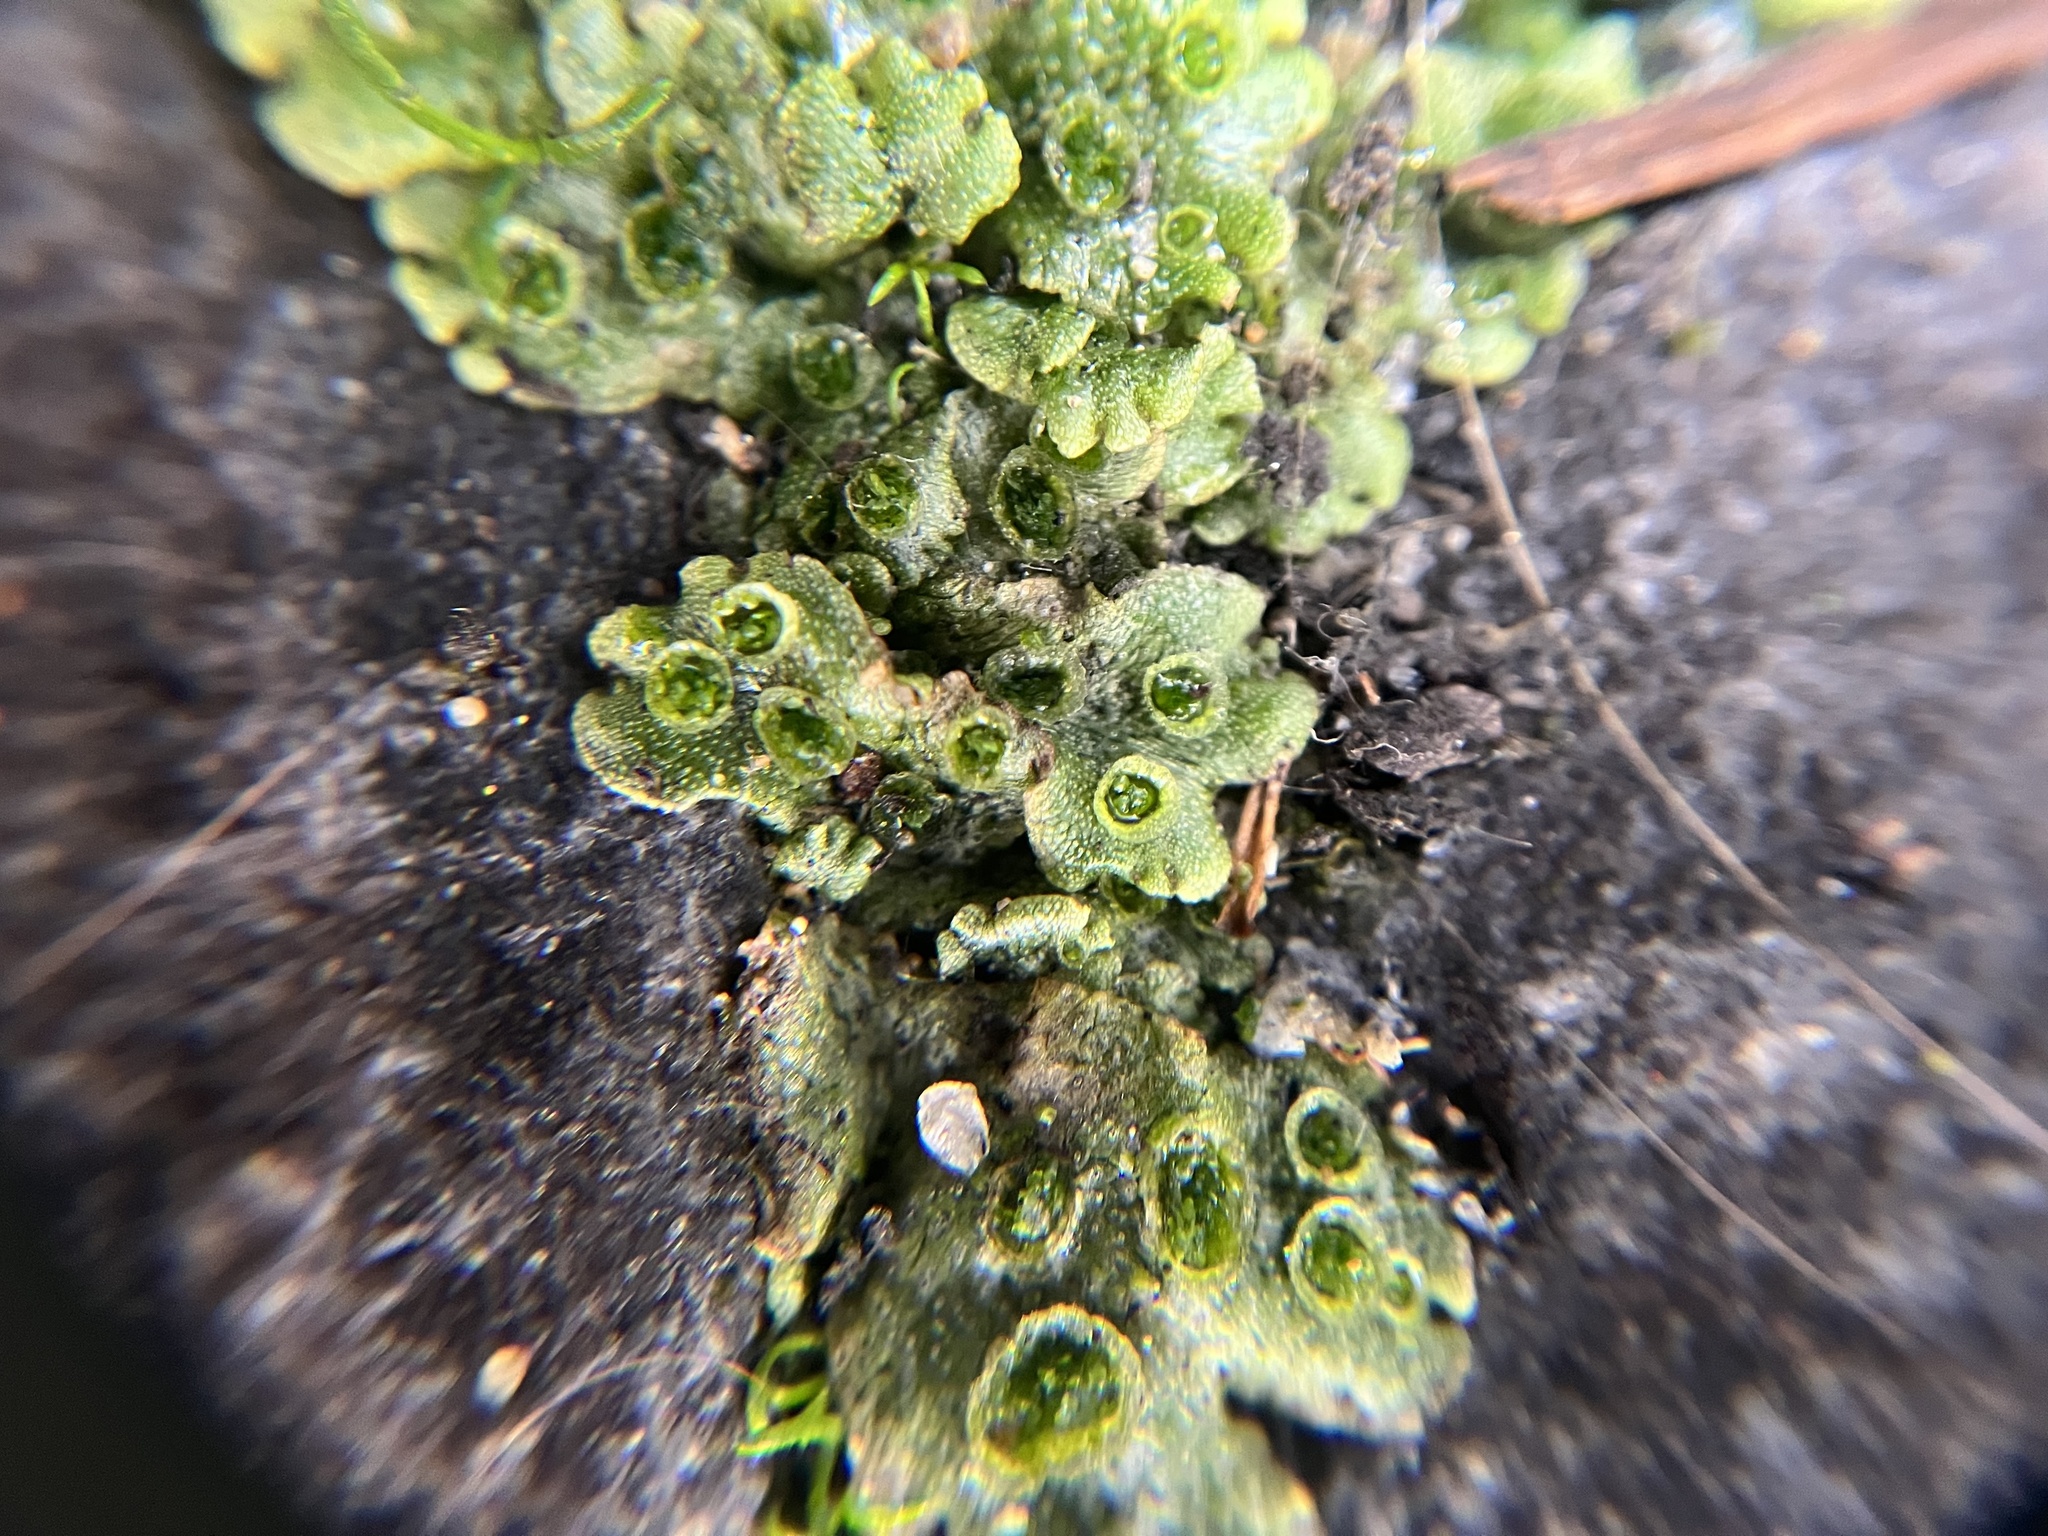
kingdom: Plantae
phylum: Marchantiophyta
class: Marchantiopsida
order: Marchantiales
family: Marchantiaceae
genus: Marchantia
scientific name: Marchantia polymorpha
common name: Common liverwort
